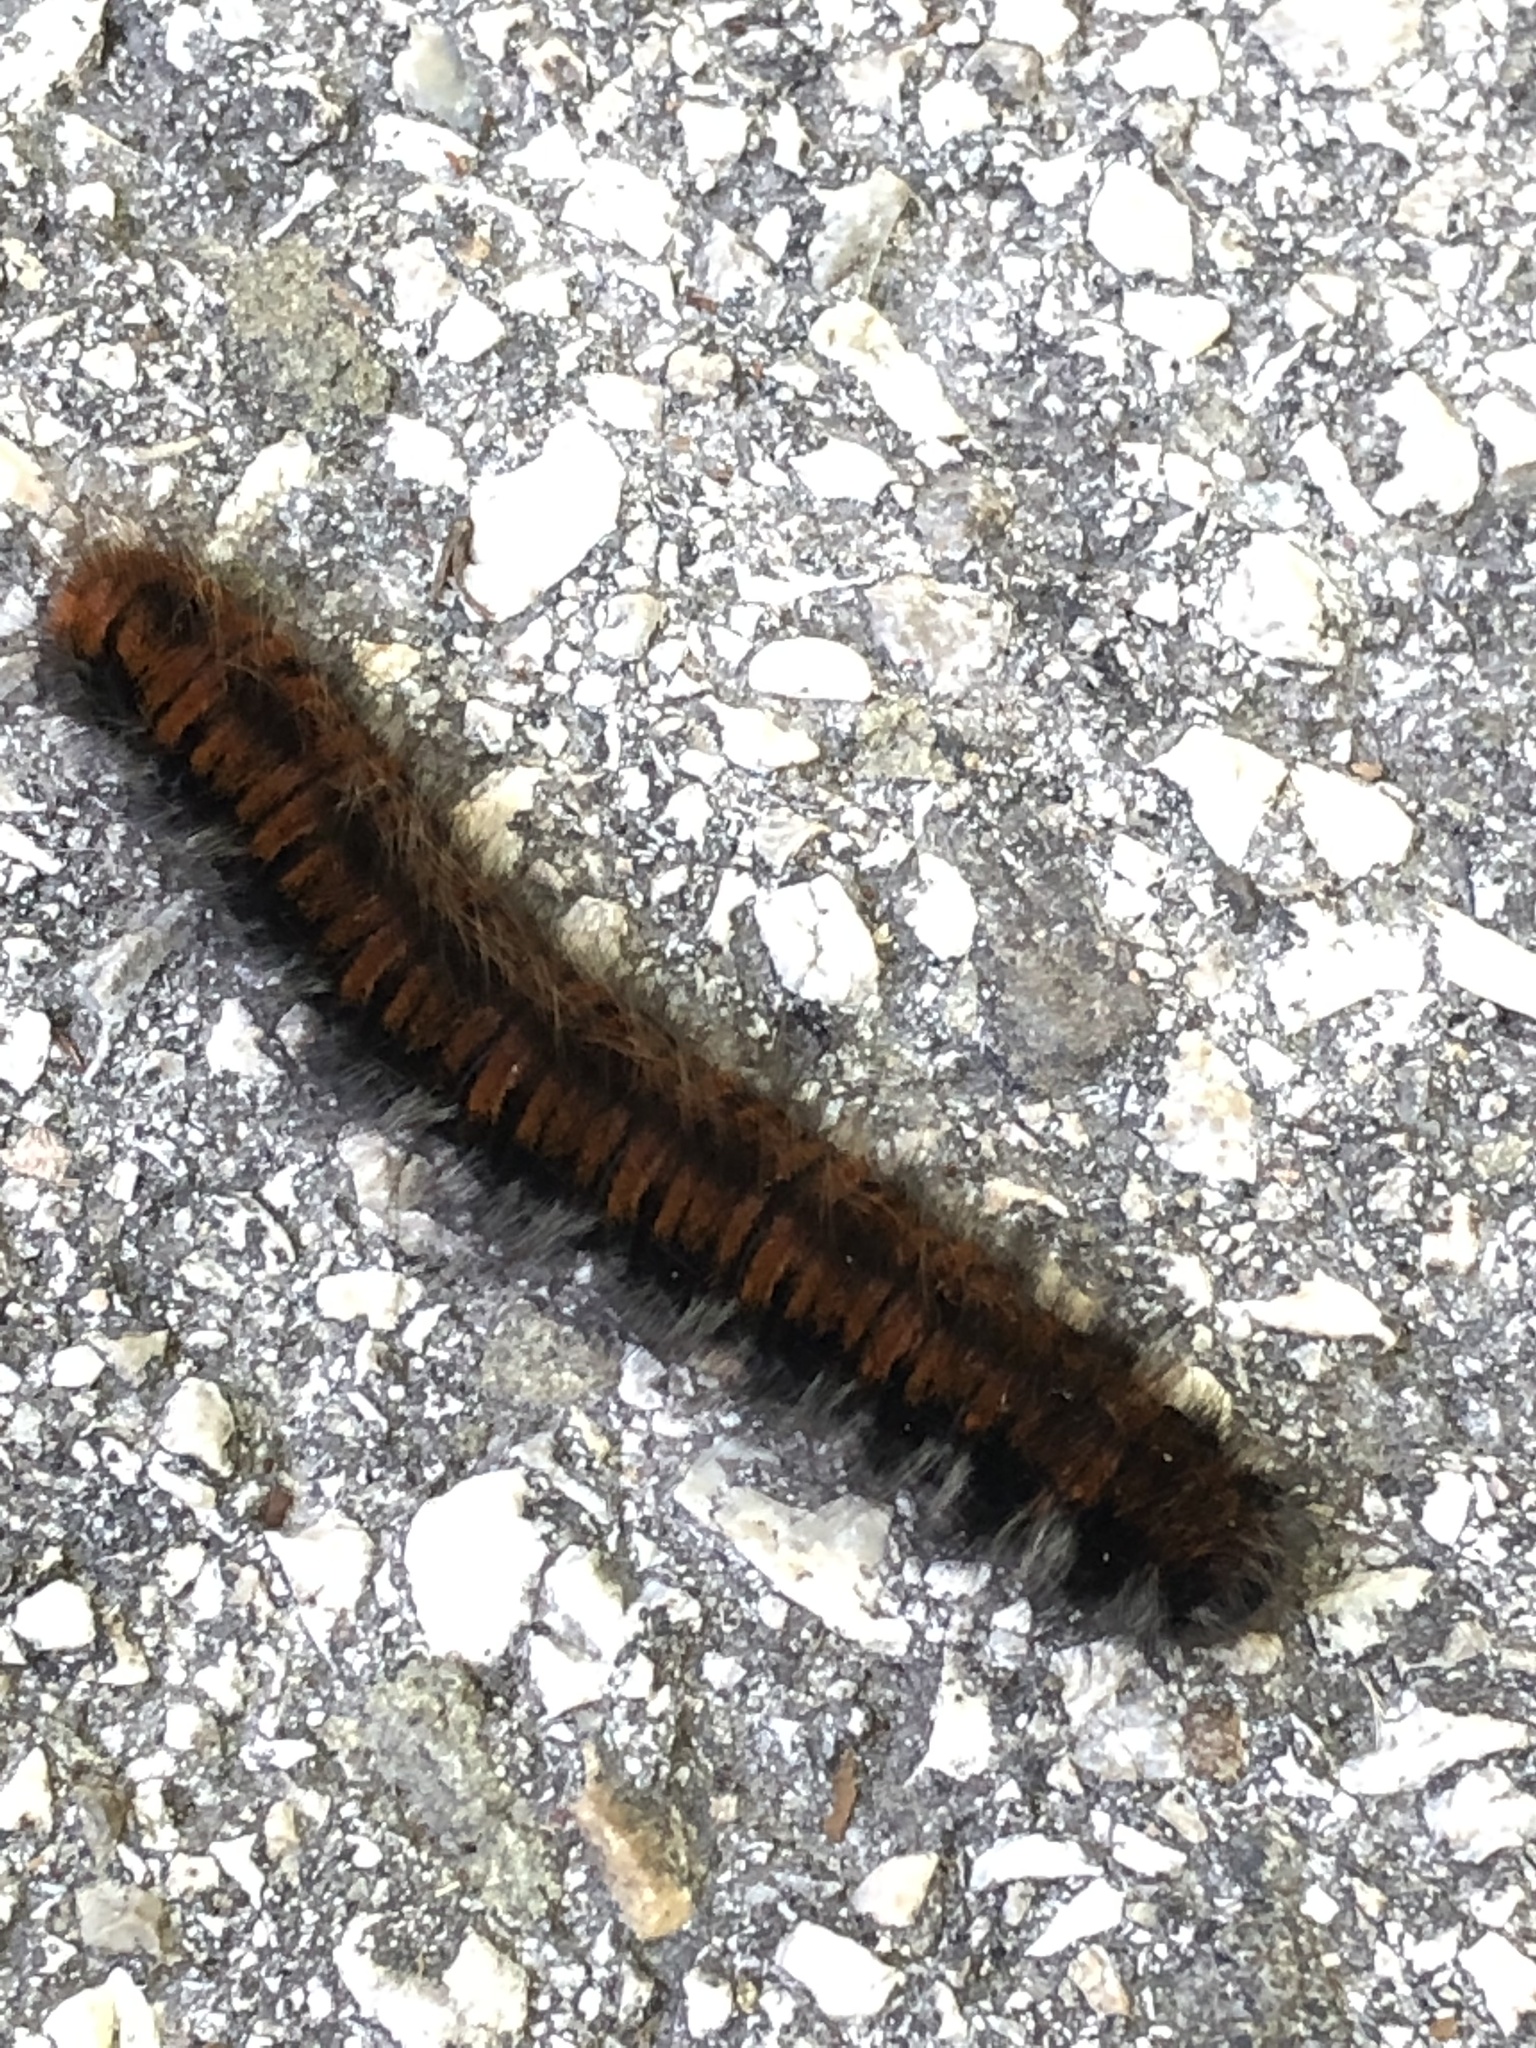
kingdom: Animalia
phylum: Arthropoda
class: Insecta
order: Lepidoptera
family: Lasiocampidae
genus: Macrothylacia
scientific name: Macrothylacia rubi
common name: Fox moth
